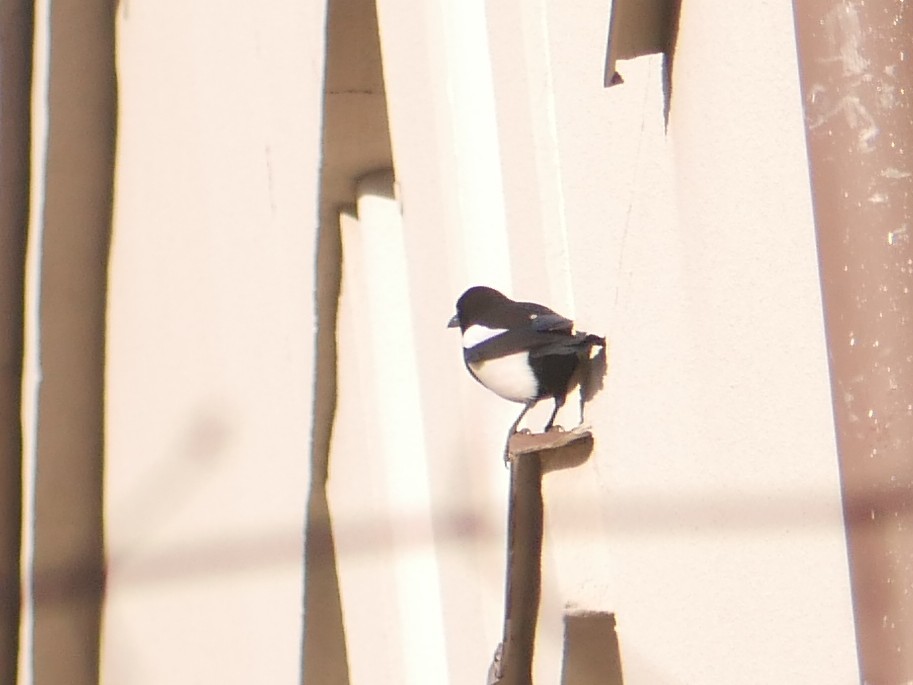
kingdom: Animalia
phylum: Chordata
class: Aves
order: Passeriformes
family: Corvidae
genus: Pica
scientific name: Pica pica
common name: Eurasian magpie
